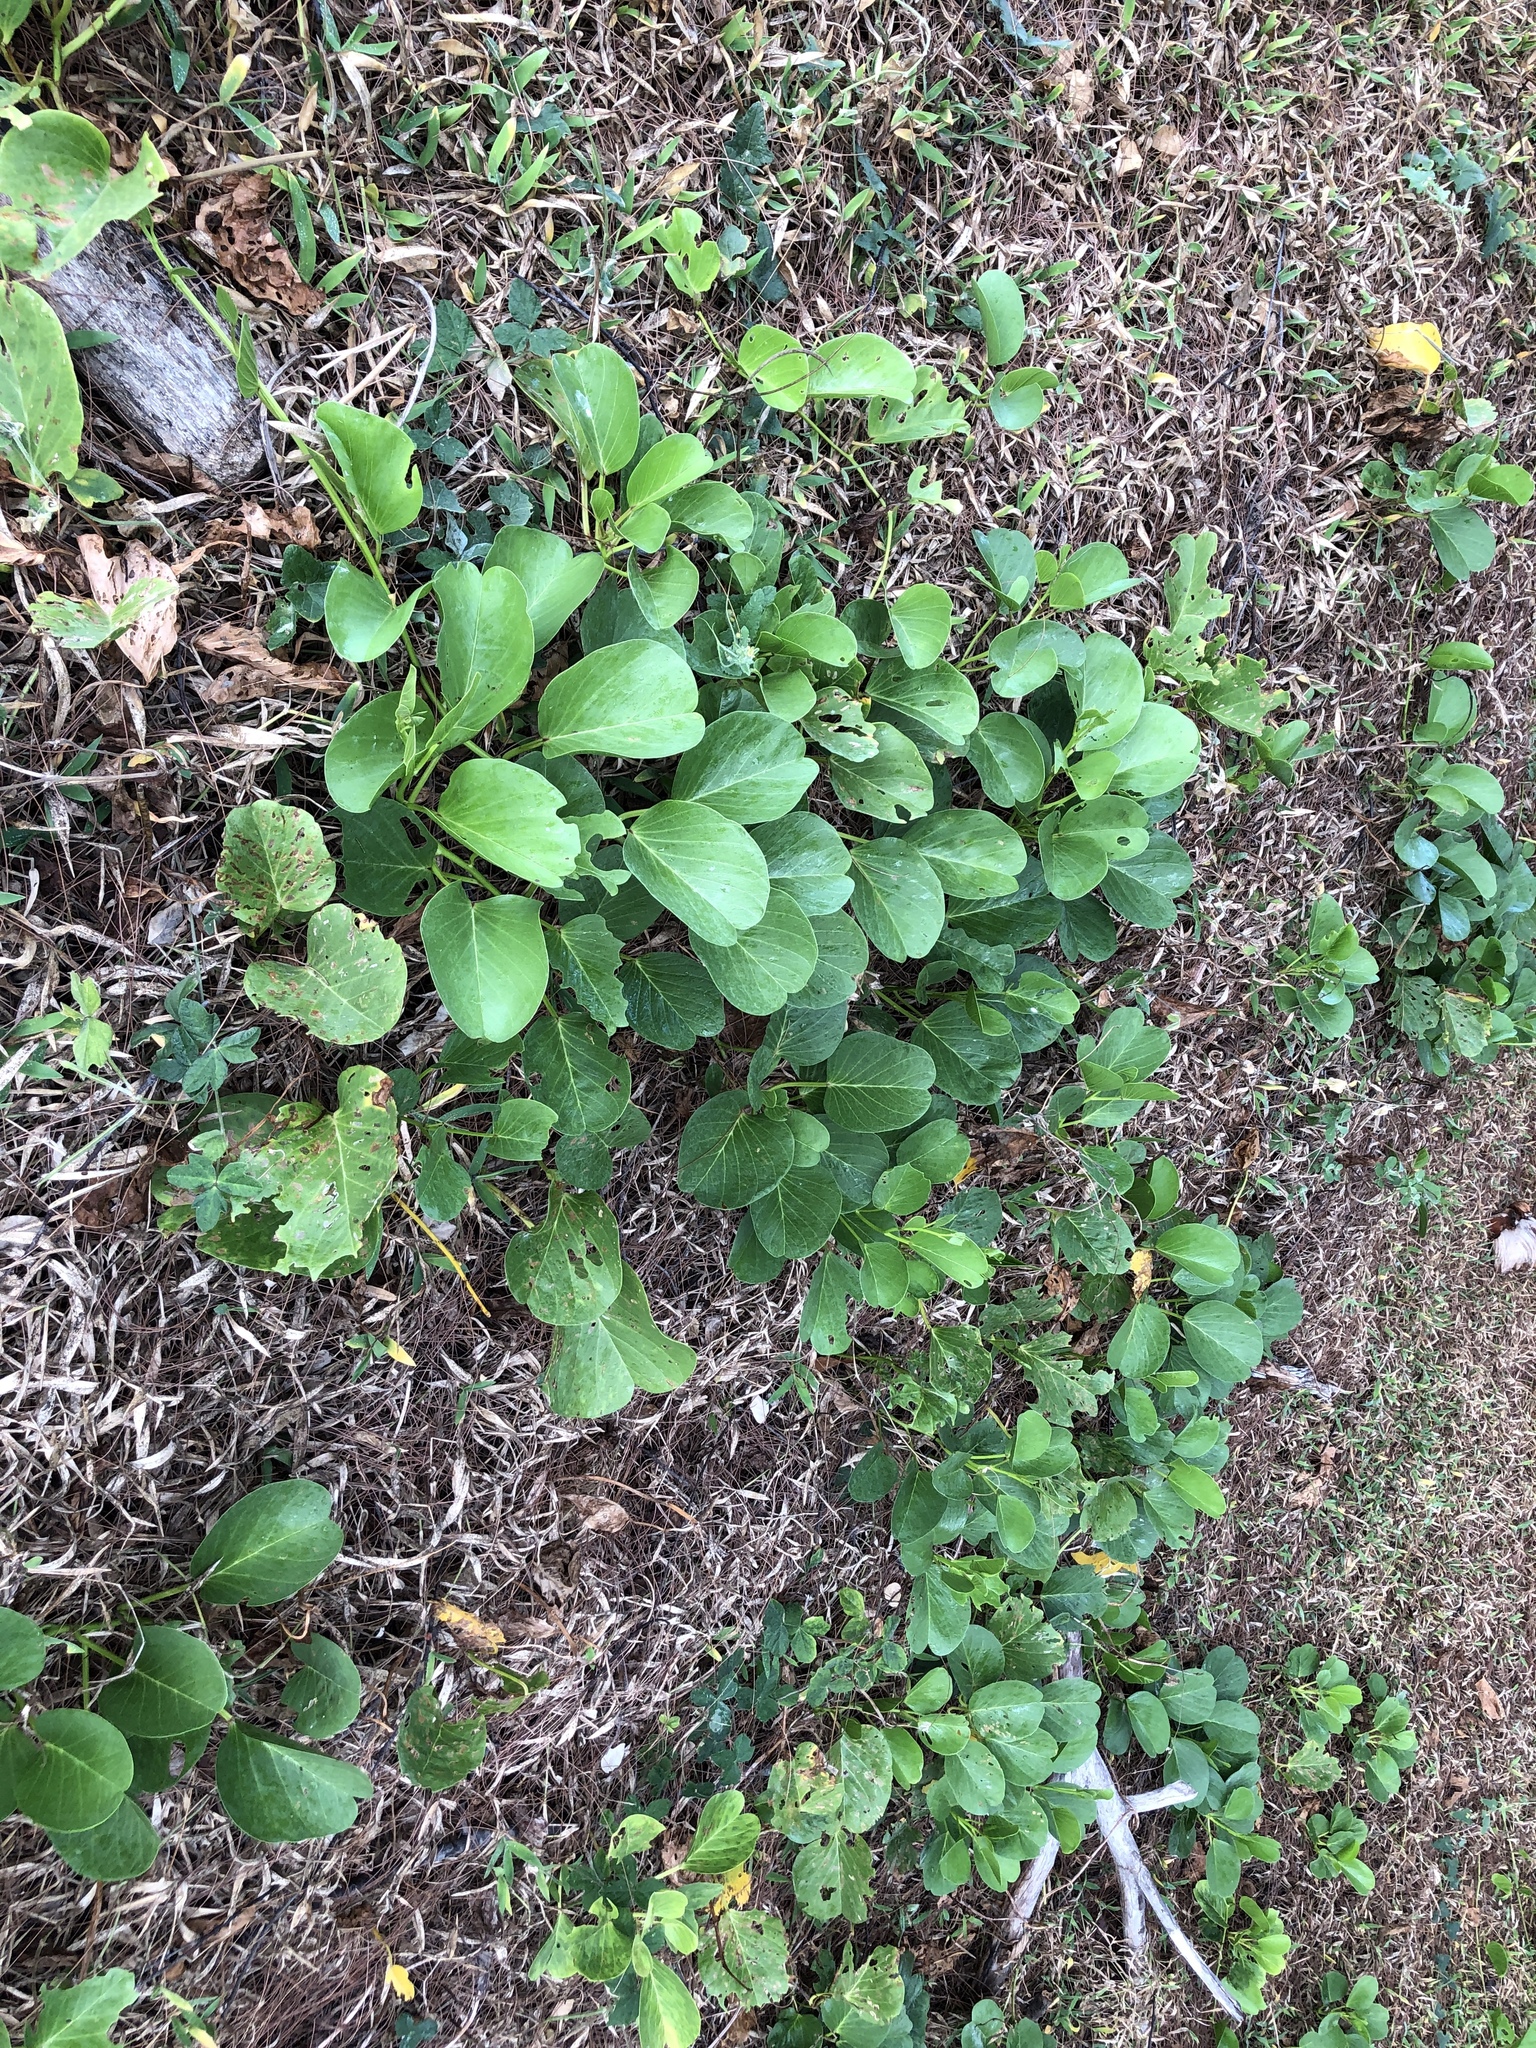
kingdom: Plantae
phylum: Tracheophyta
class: Magnoliopsida
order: Solanales
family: Convolvulaceae
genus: Ipomoea
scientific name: Ipomoea pes-caprae
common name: Beach morning glory
